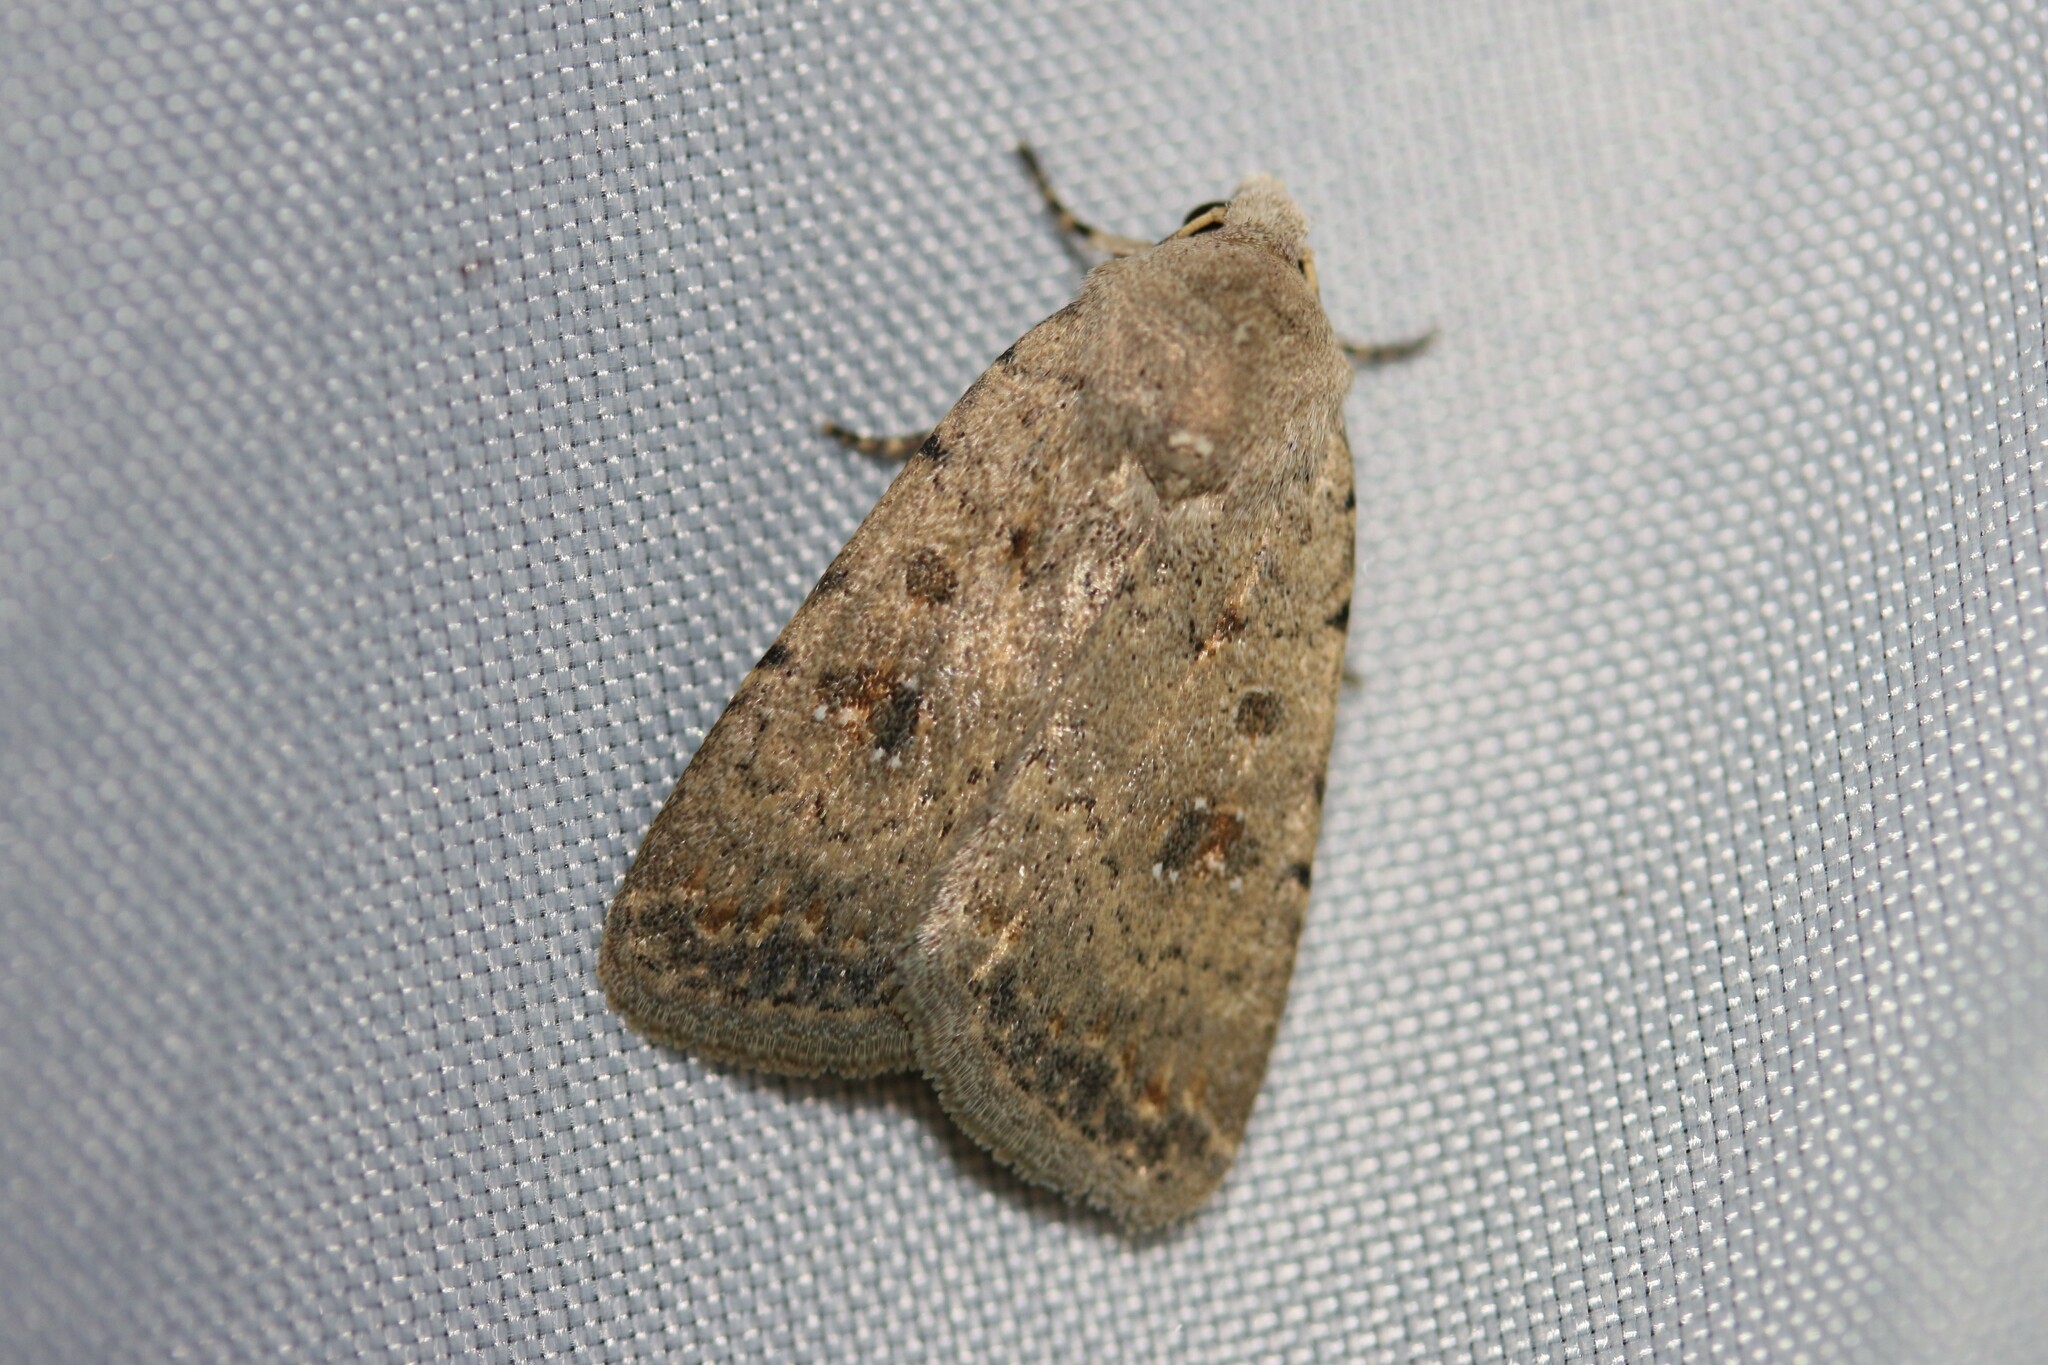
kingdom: Animalia
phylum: Arthropoda
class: Insecta
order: Lepidoptera
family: Noctuidae
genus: Caradrina
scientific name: Caradrina clavipalpis
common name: Pale mottled willow
